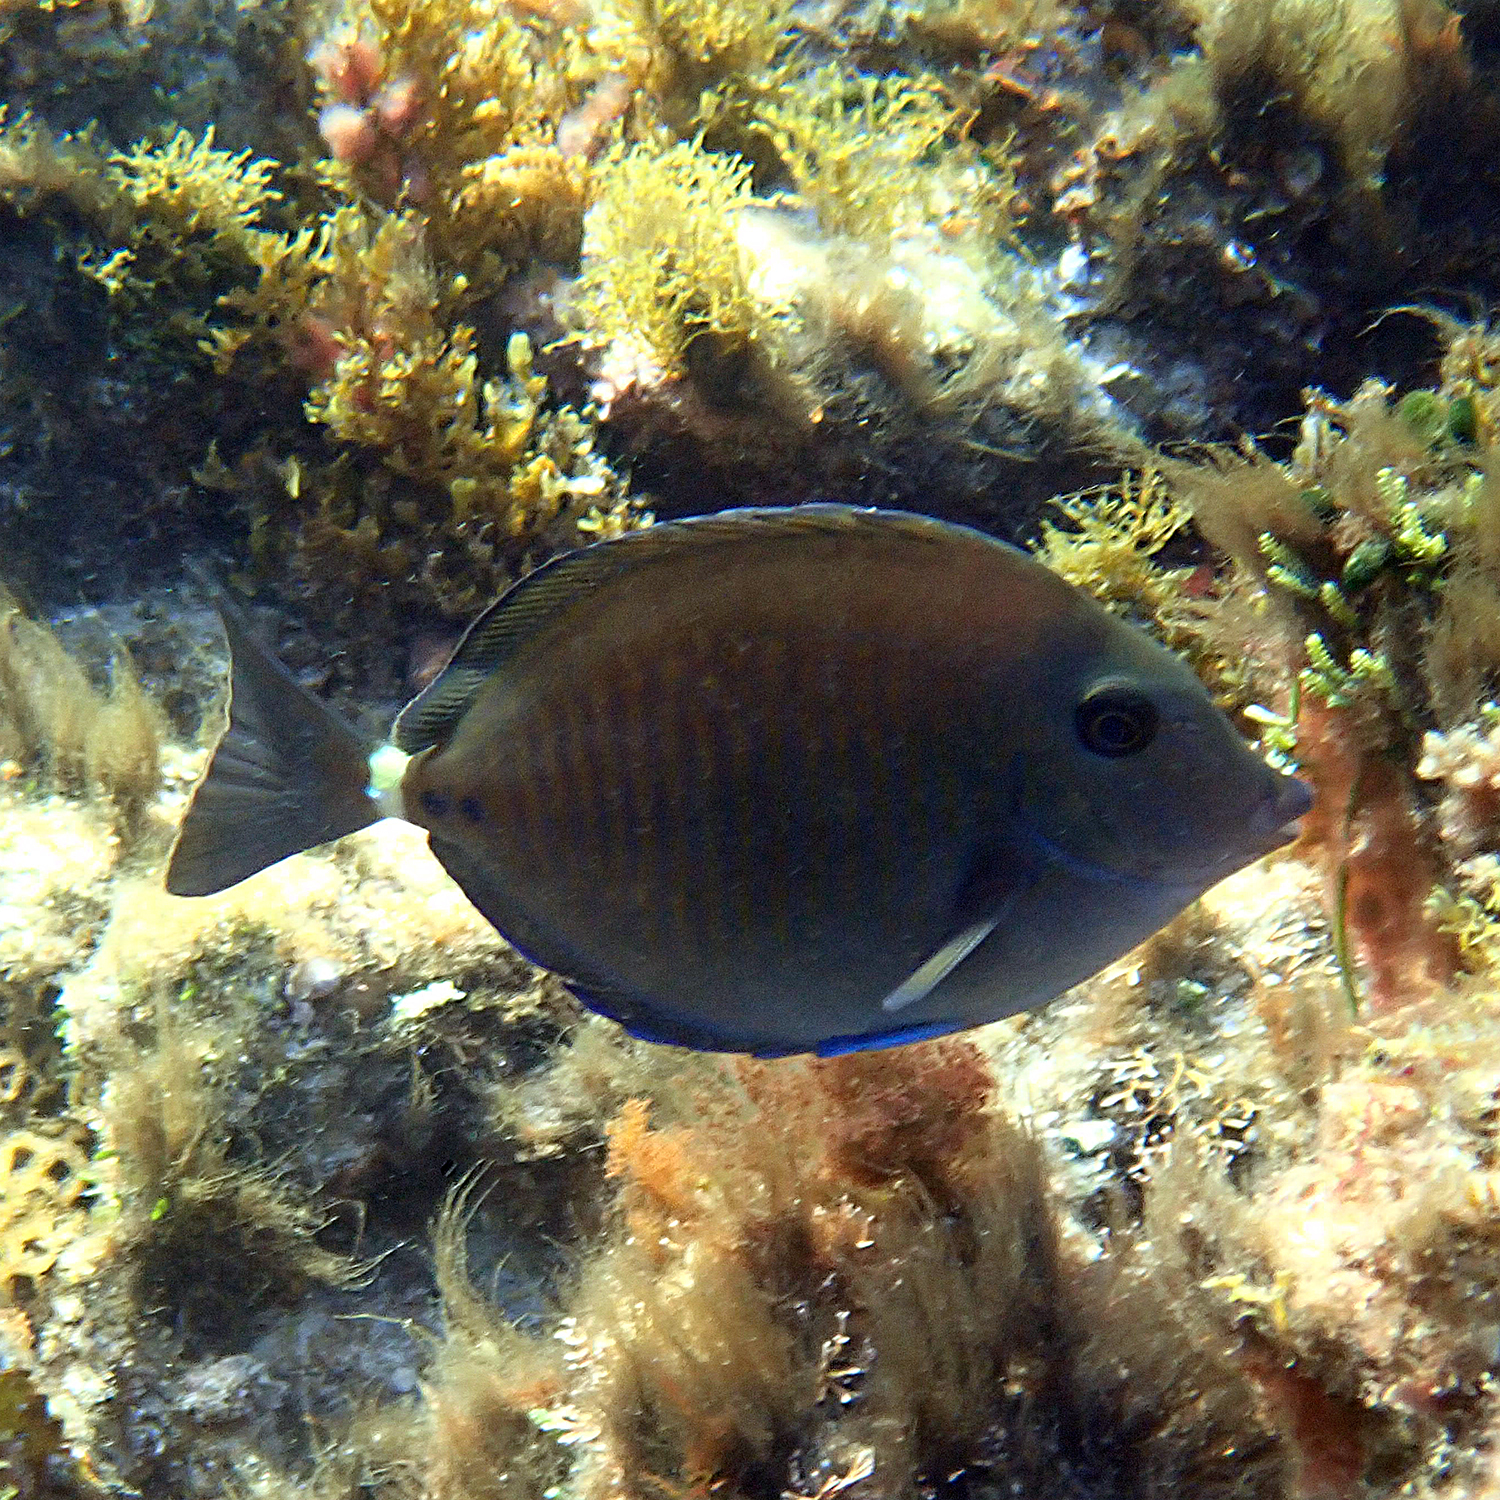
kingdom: Animalia
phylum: Chordata
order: Perciformes
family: Acanthuridae
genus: Prionurus
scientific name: Prionurus maculatus
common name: Yellowspotted sawtail
